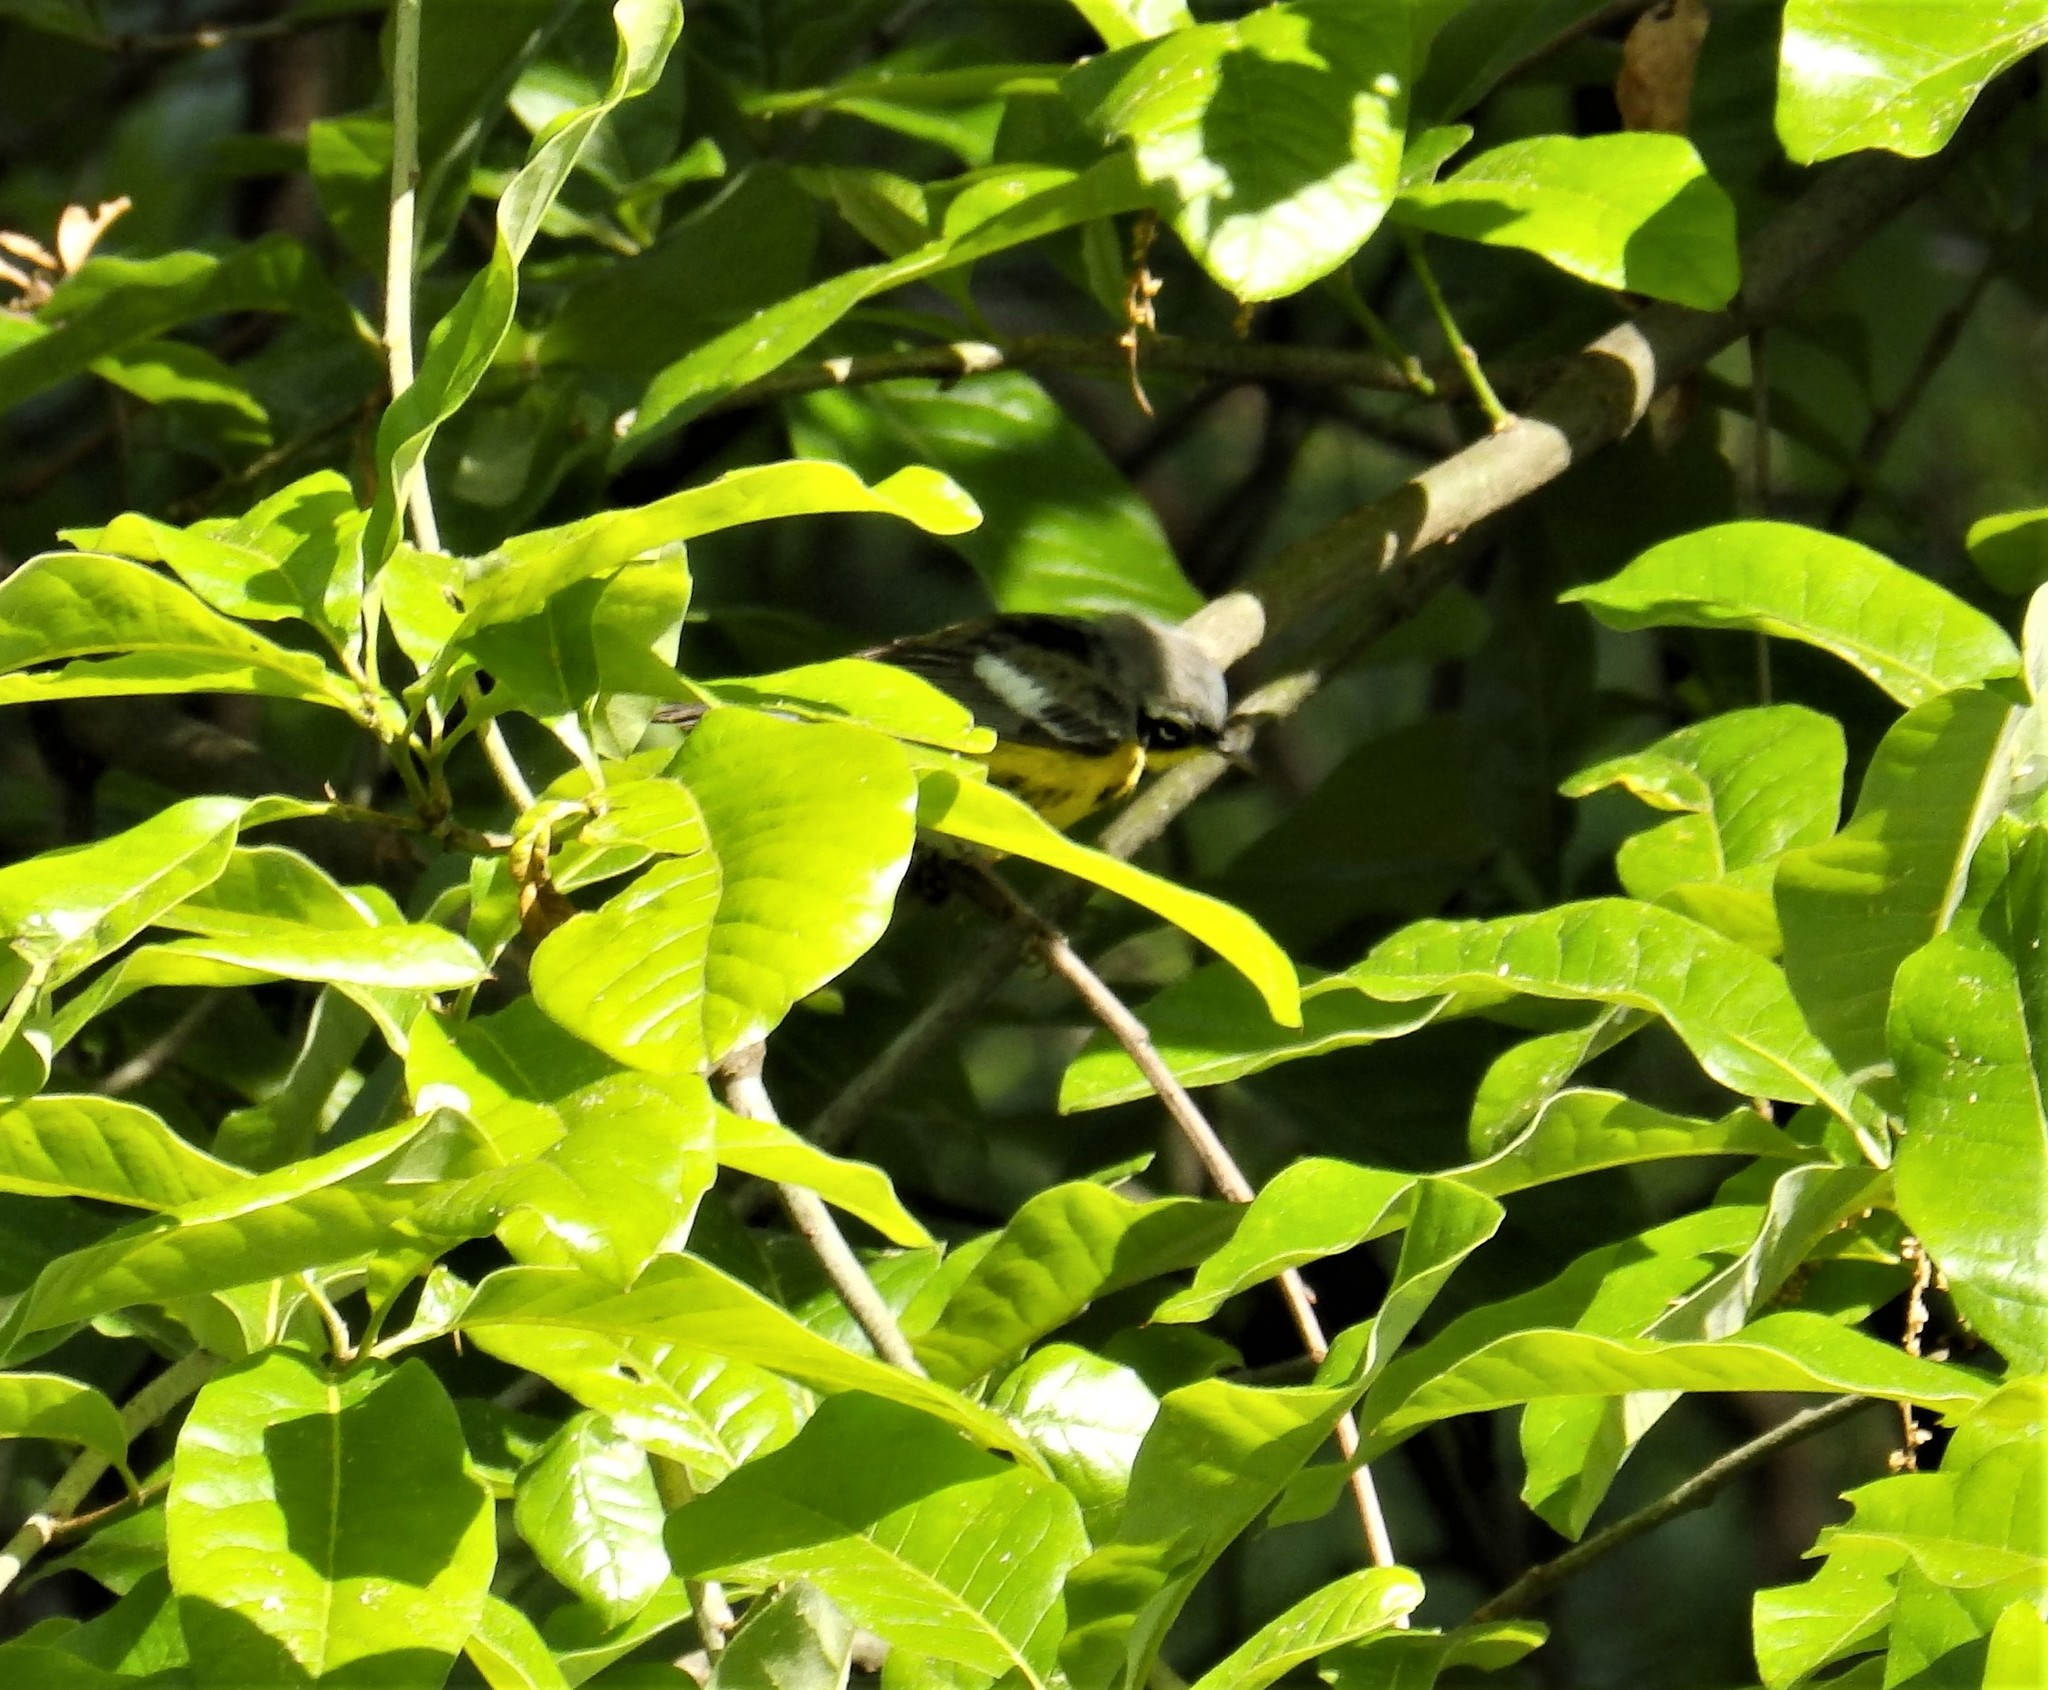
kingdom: Animalia
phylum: Chordata
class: Aves
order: Passeriformes
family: Parulidae
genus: Setophaga
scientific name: Setophaga magnolia
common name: Magnolia warbler
